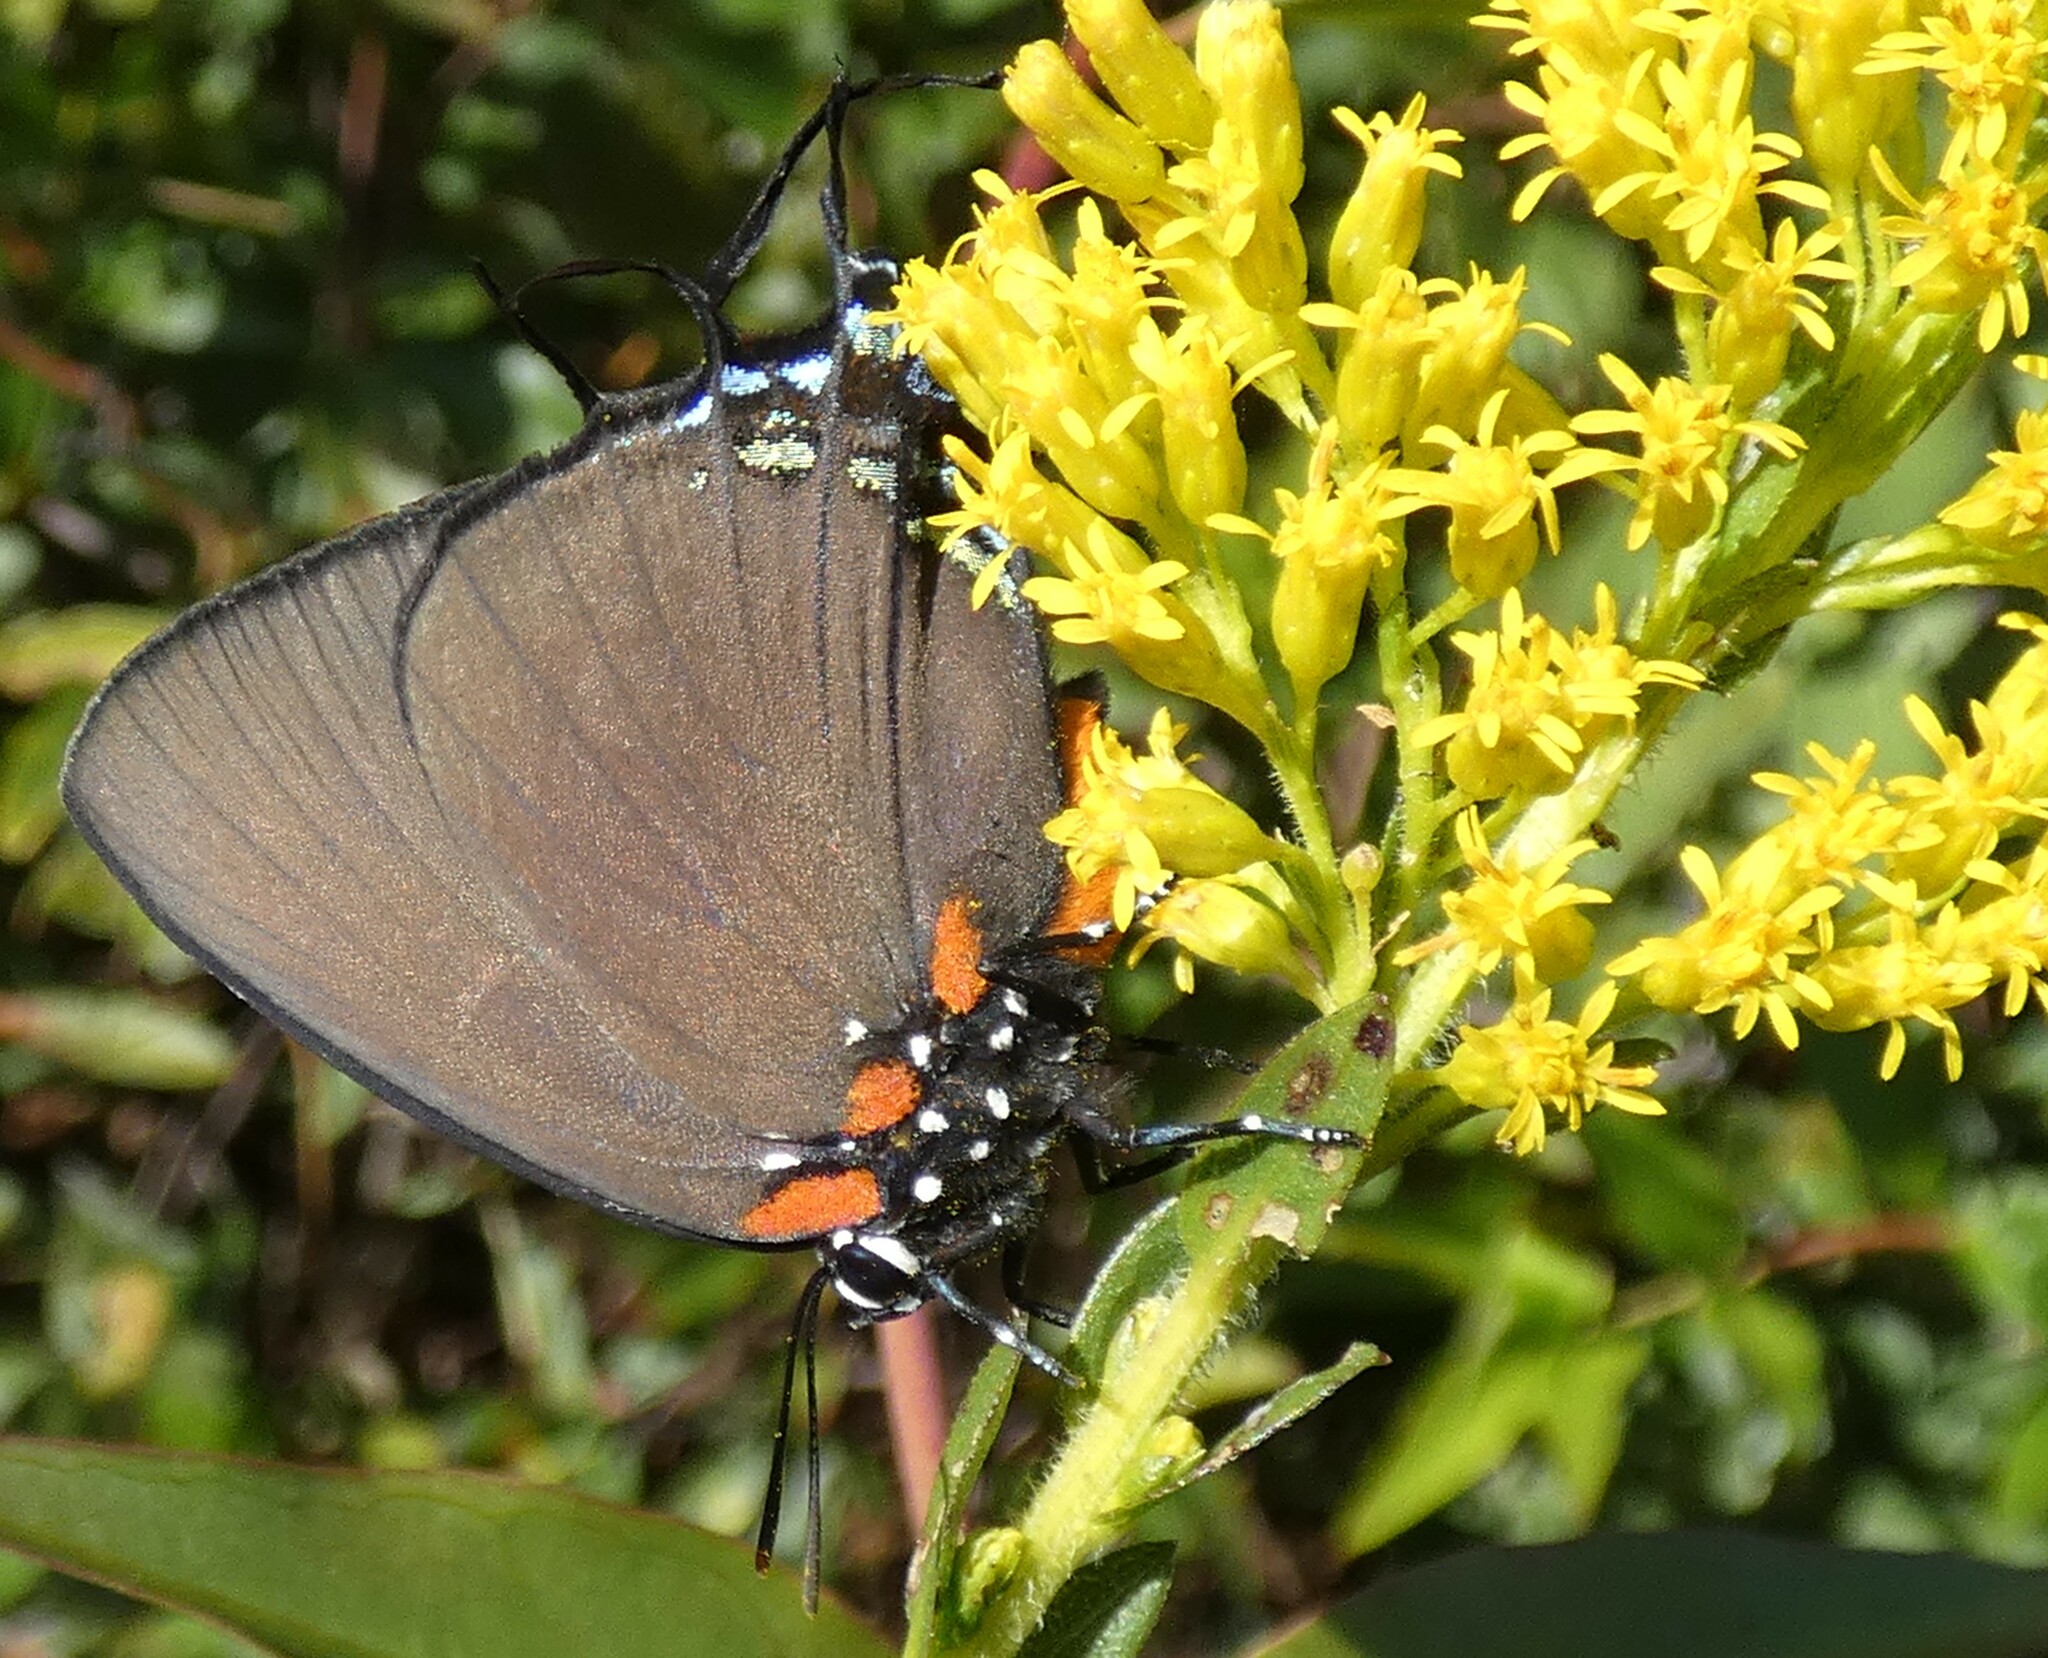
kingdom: Animalia
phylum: Arthropoda
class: Insecta
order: Lepidoptera
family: Lycaenidae
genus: Atlides
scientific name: Atlides halesus
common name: Great purple hairstreak
